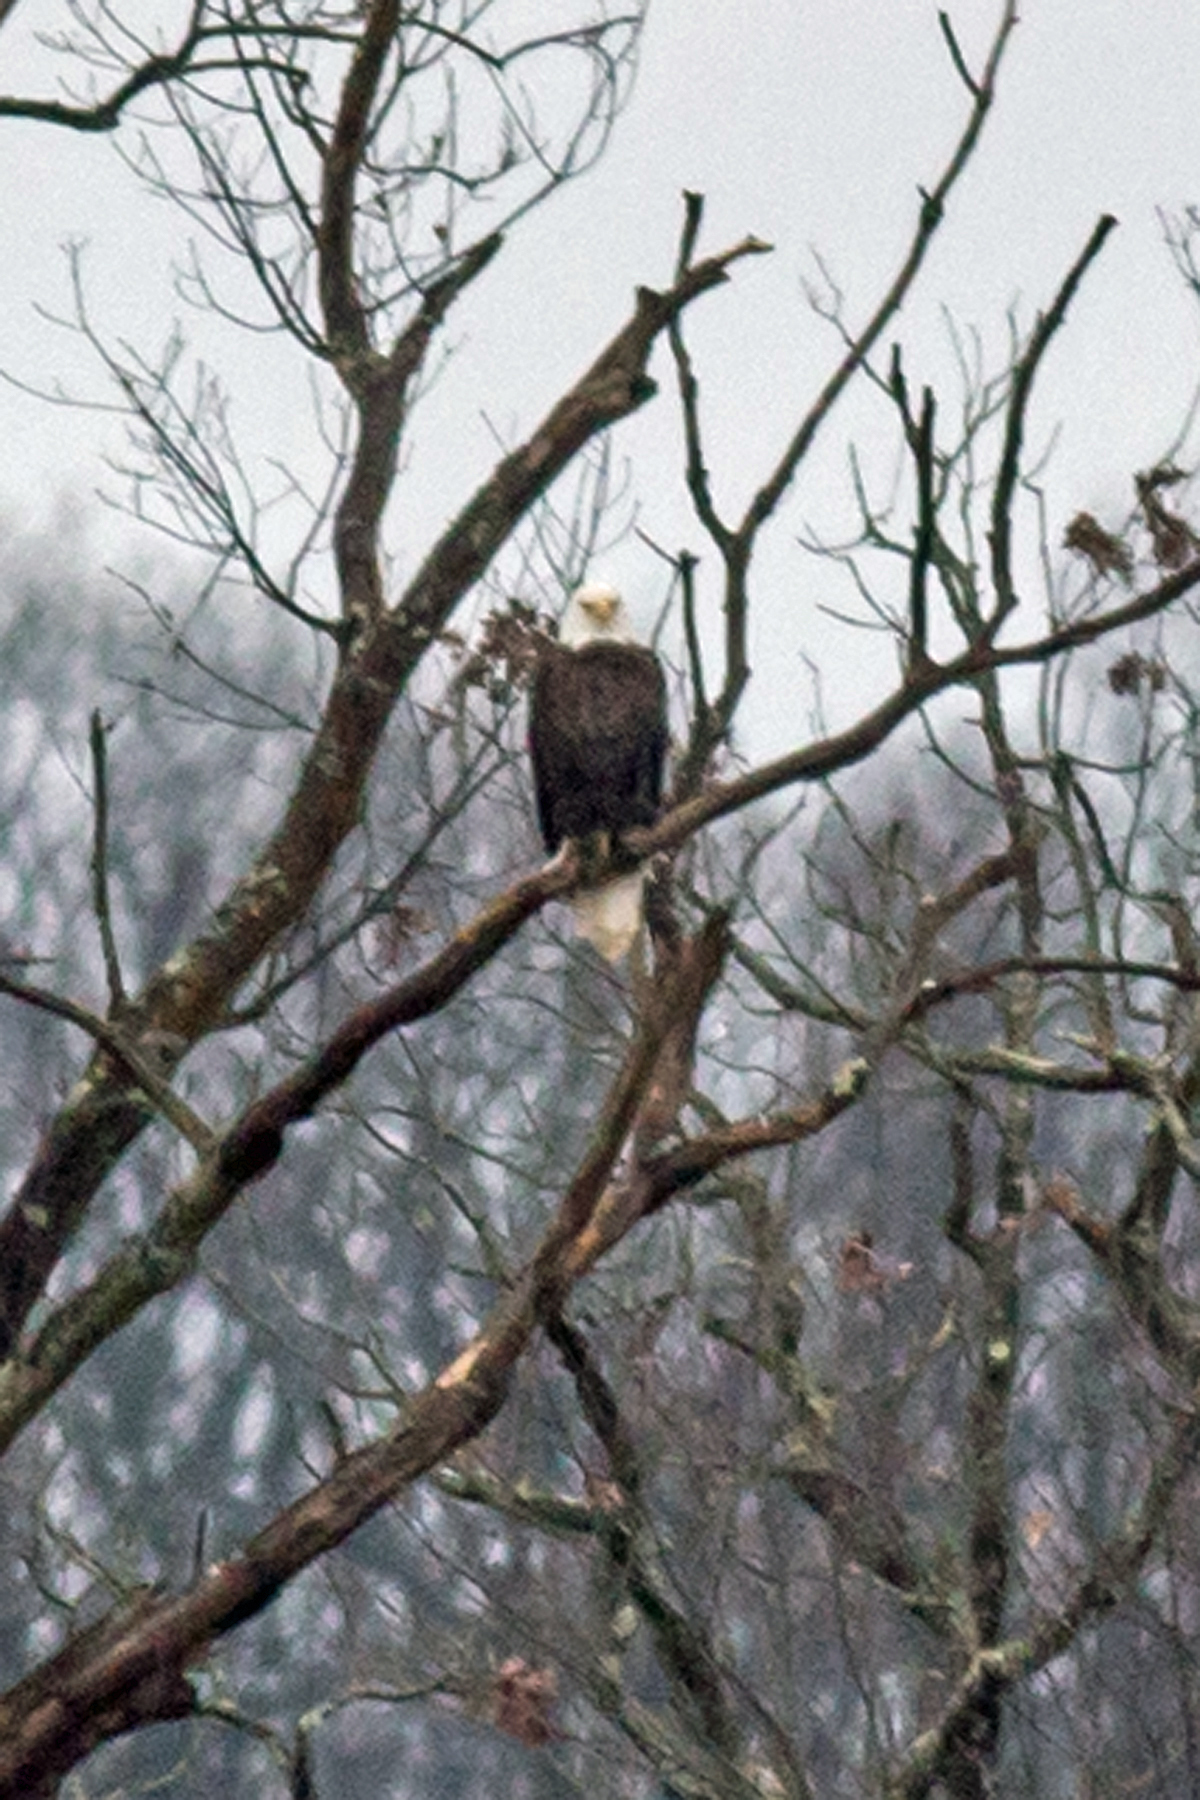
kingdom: Animalia
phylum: Chordata
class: Aves
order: Accipitriformes
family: Accipitridae
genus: Haliaeetus
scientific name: Haliaeetus leucocephalus
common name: Bald eagle
